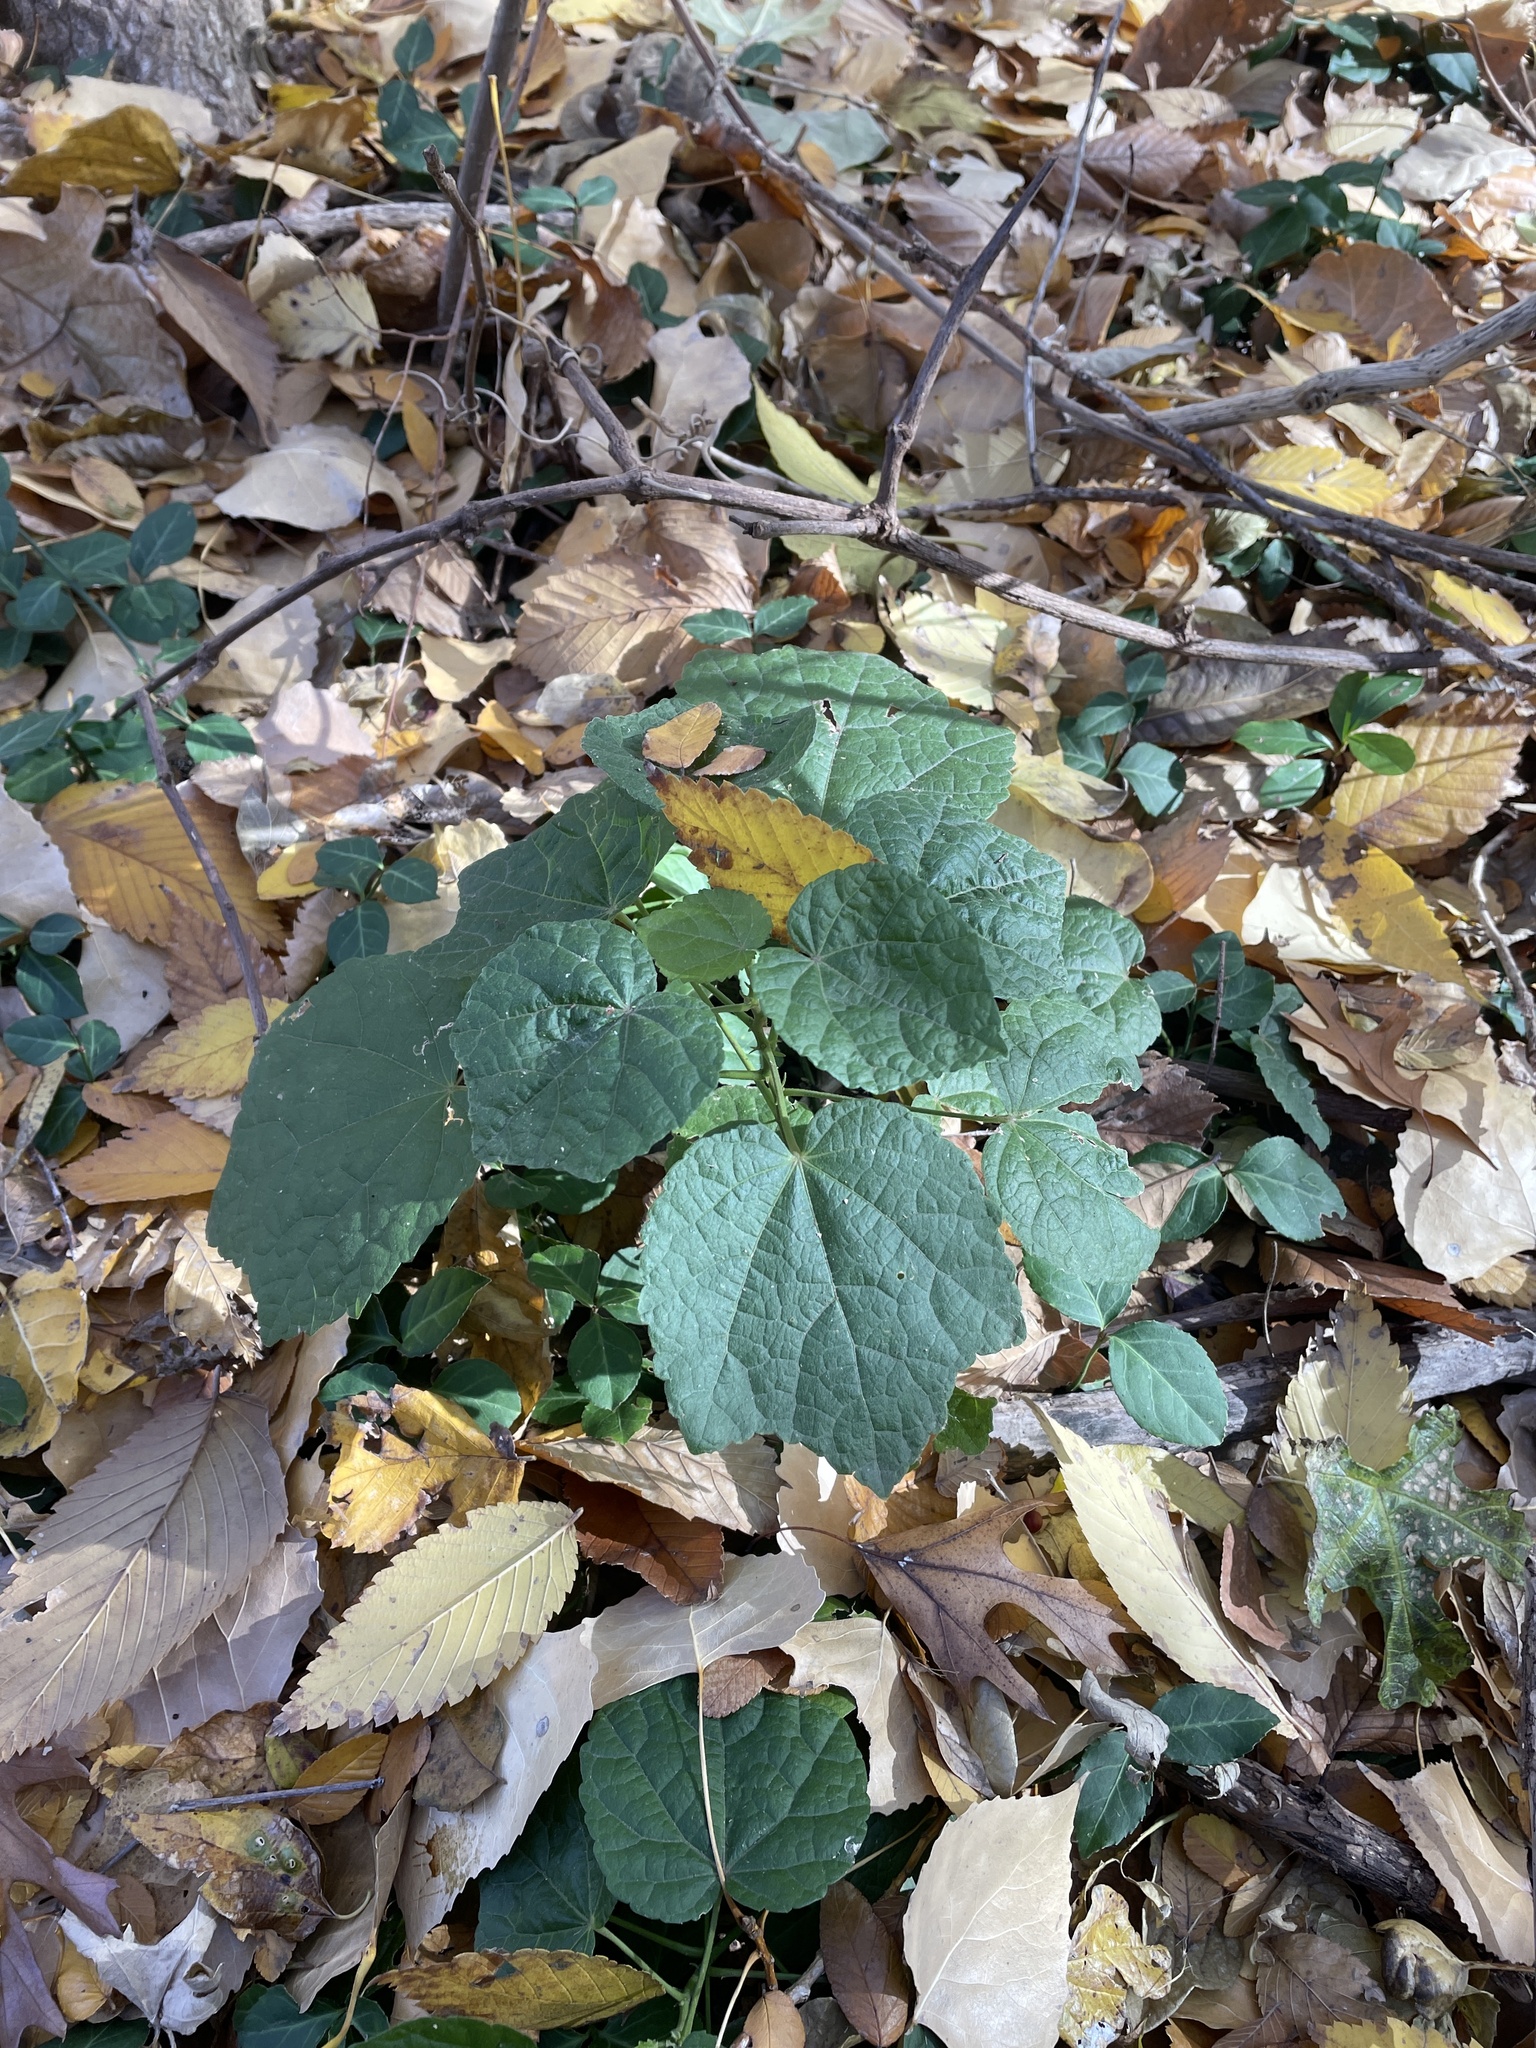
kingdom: Plantae
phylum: Tracheophyta
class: Magnoliopsida
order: Malvales
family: Malvaceae
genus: Malvaviscus
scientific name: Malvaviscus arboreus
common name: Wax mallow
